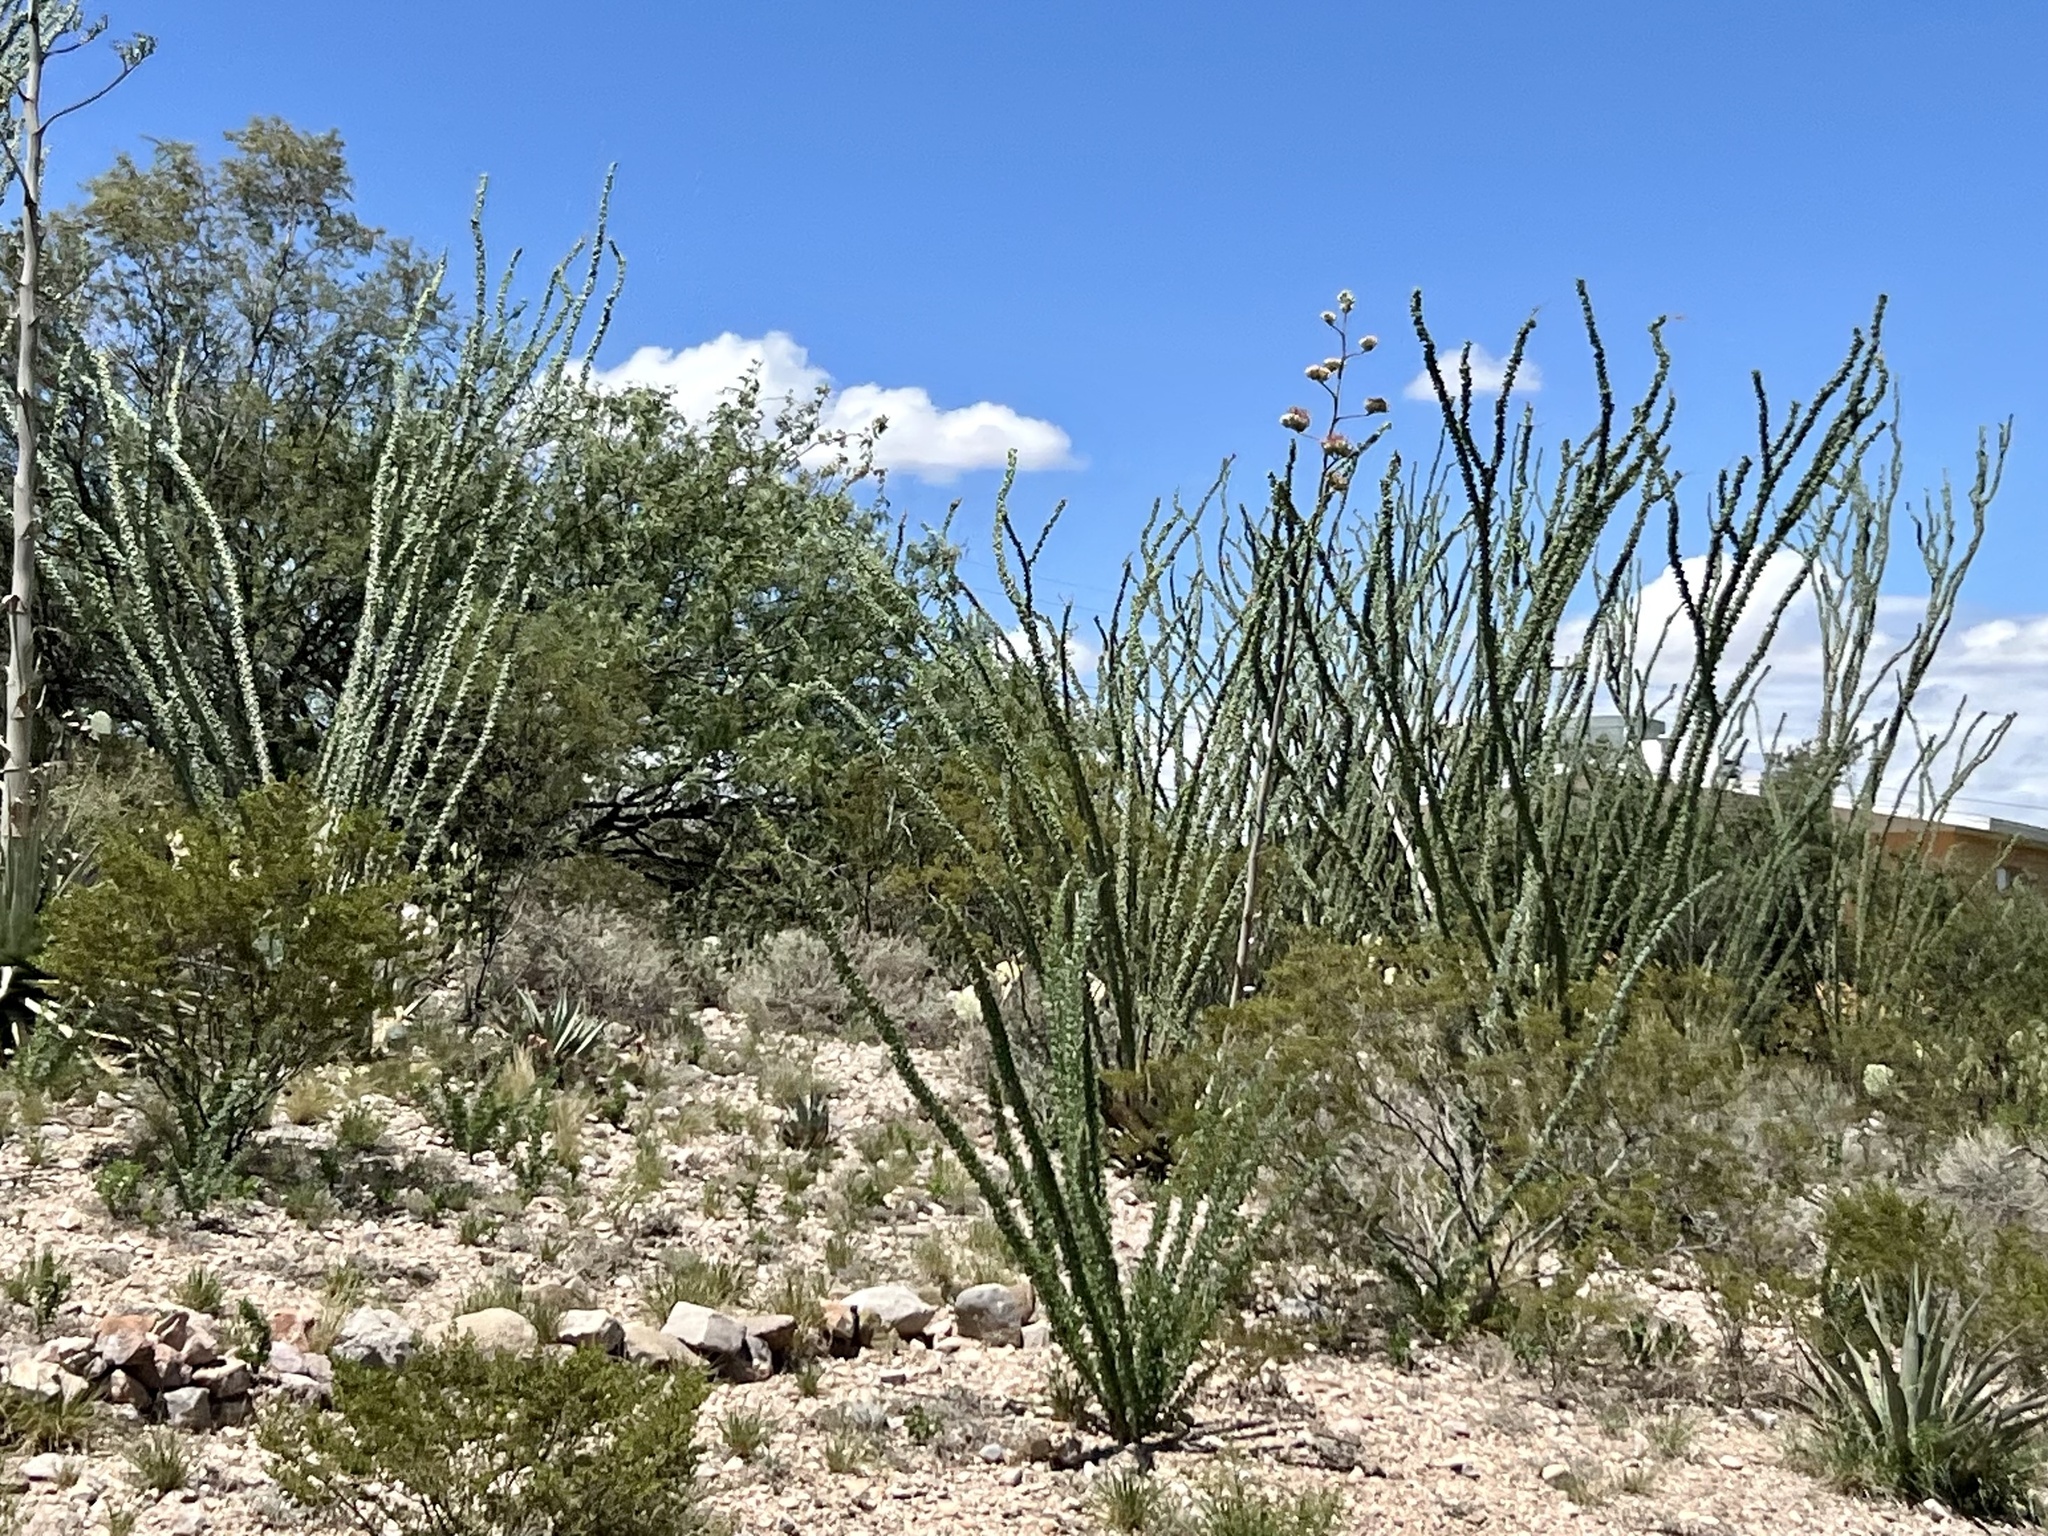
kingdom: Plantae
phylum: Tracheophyta
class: Magnoliopsida
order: Ericales
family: Fouquieriaceae
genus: Fouquieria
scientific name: Fouquieria splendens
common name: Vine-cactus
